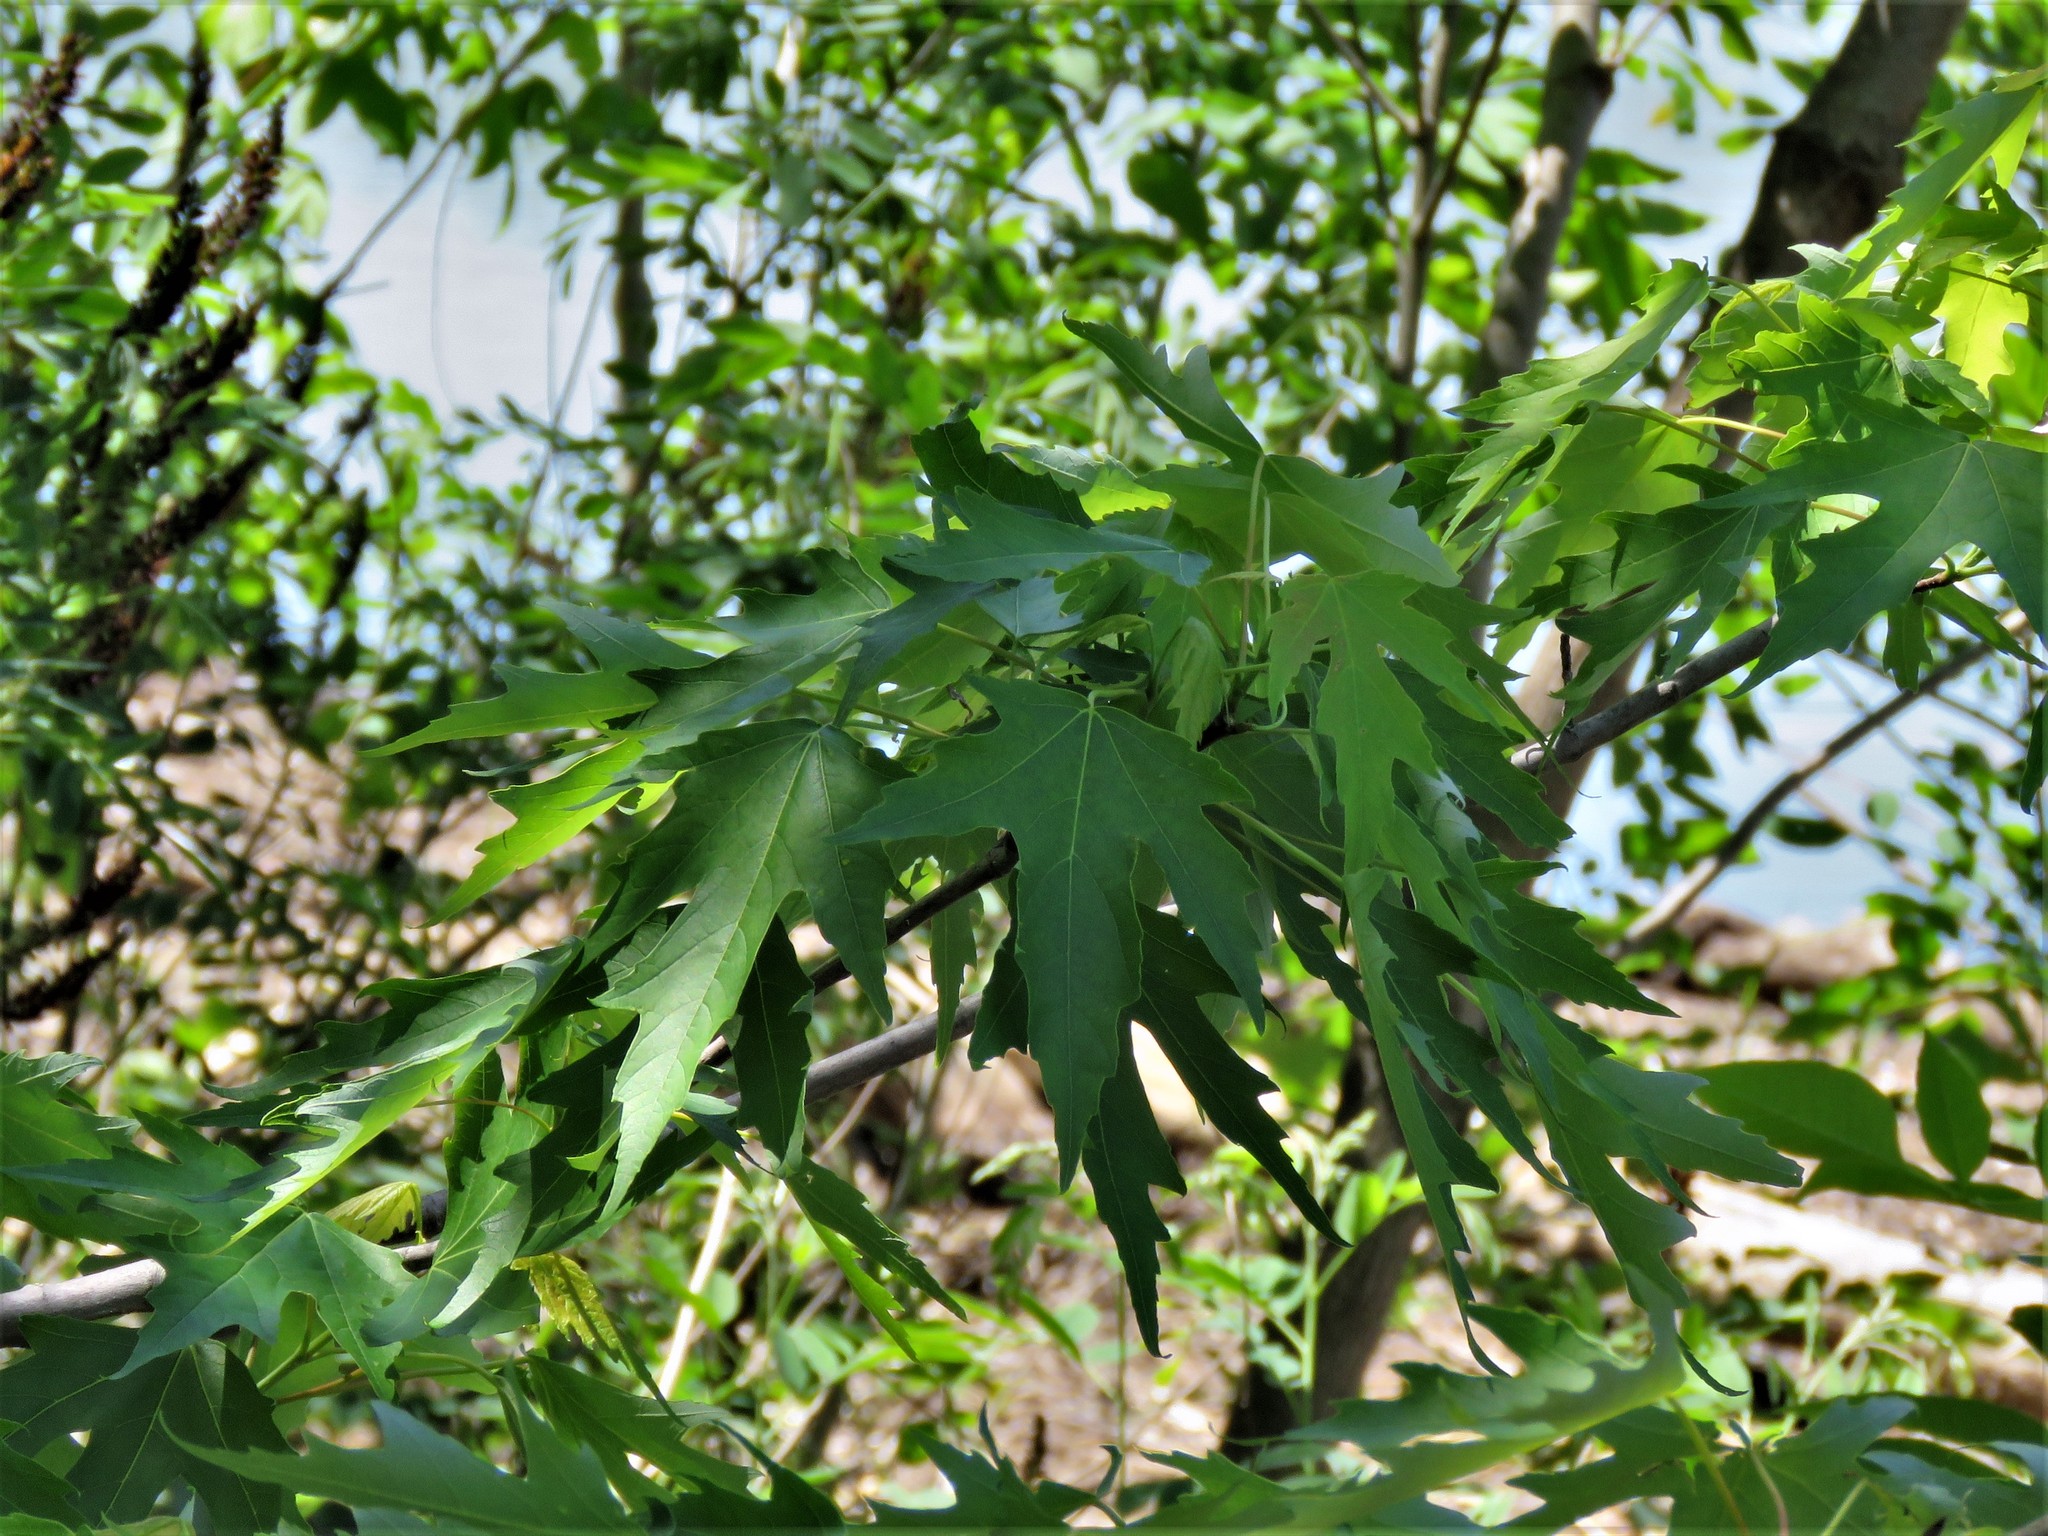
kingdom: Plantae
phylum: Tracheophyta
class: Magnoliopsida
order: Sapindales
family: Sapindaceae
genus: Acer
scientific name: Acer saccharinum
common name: Silver maple
